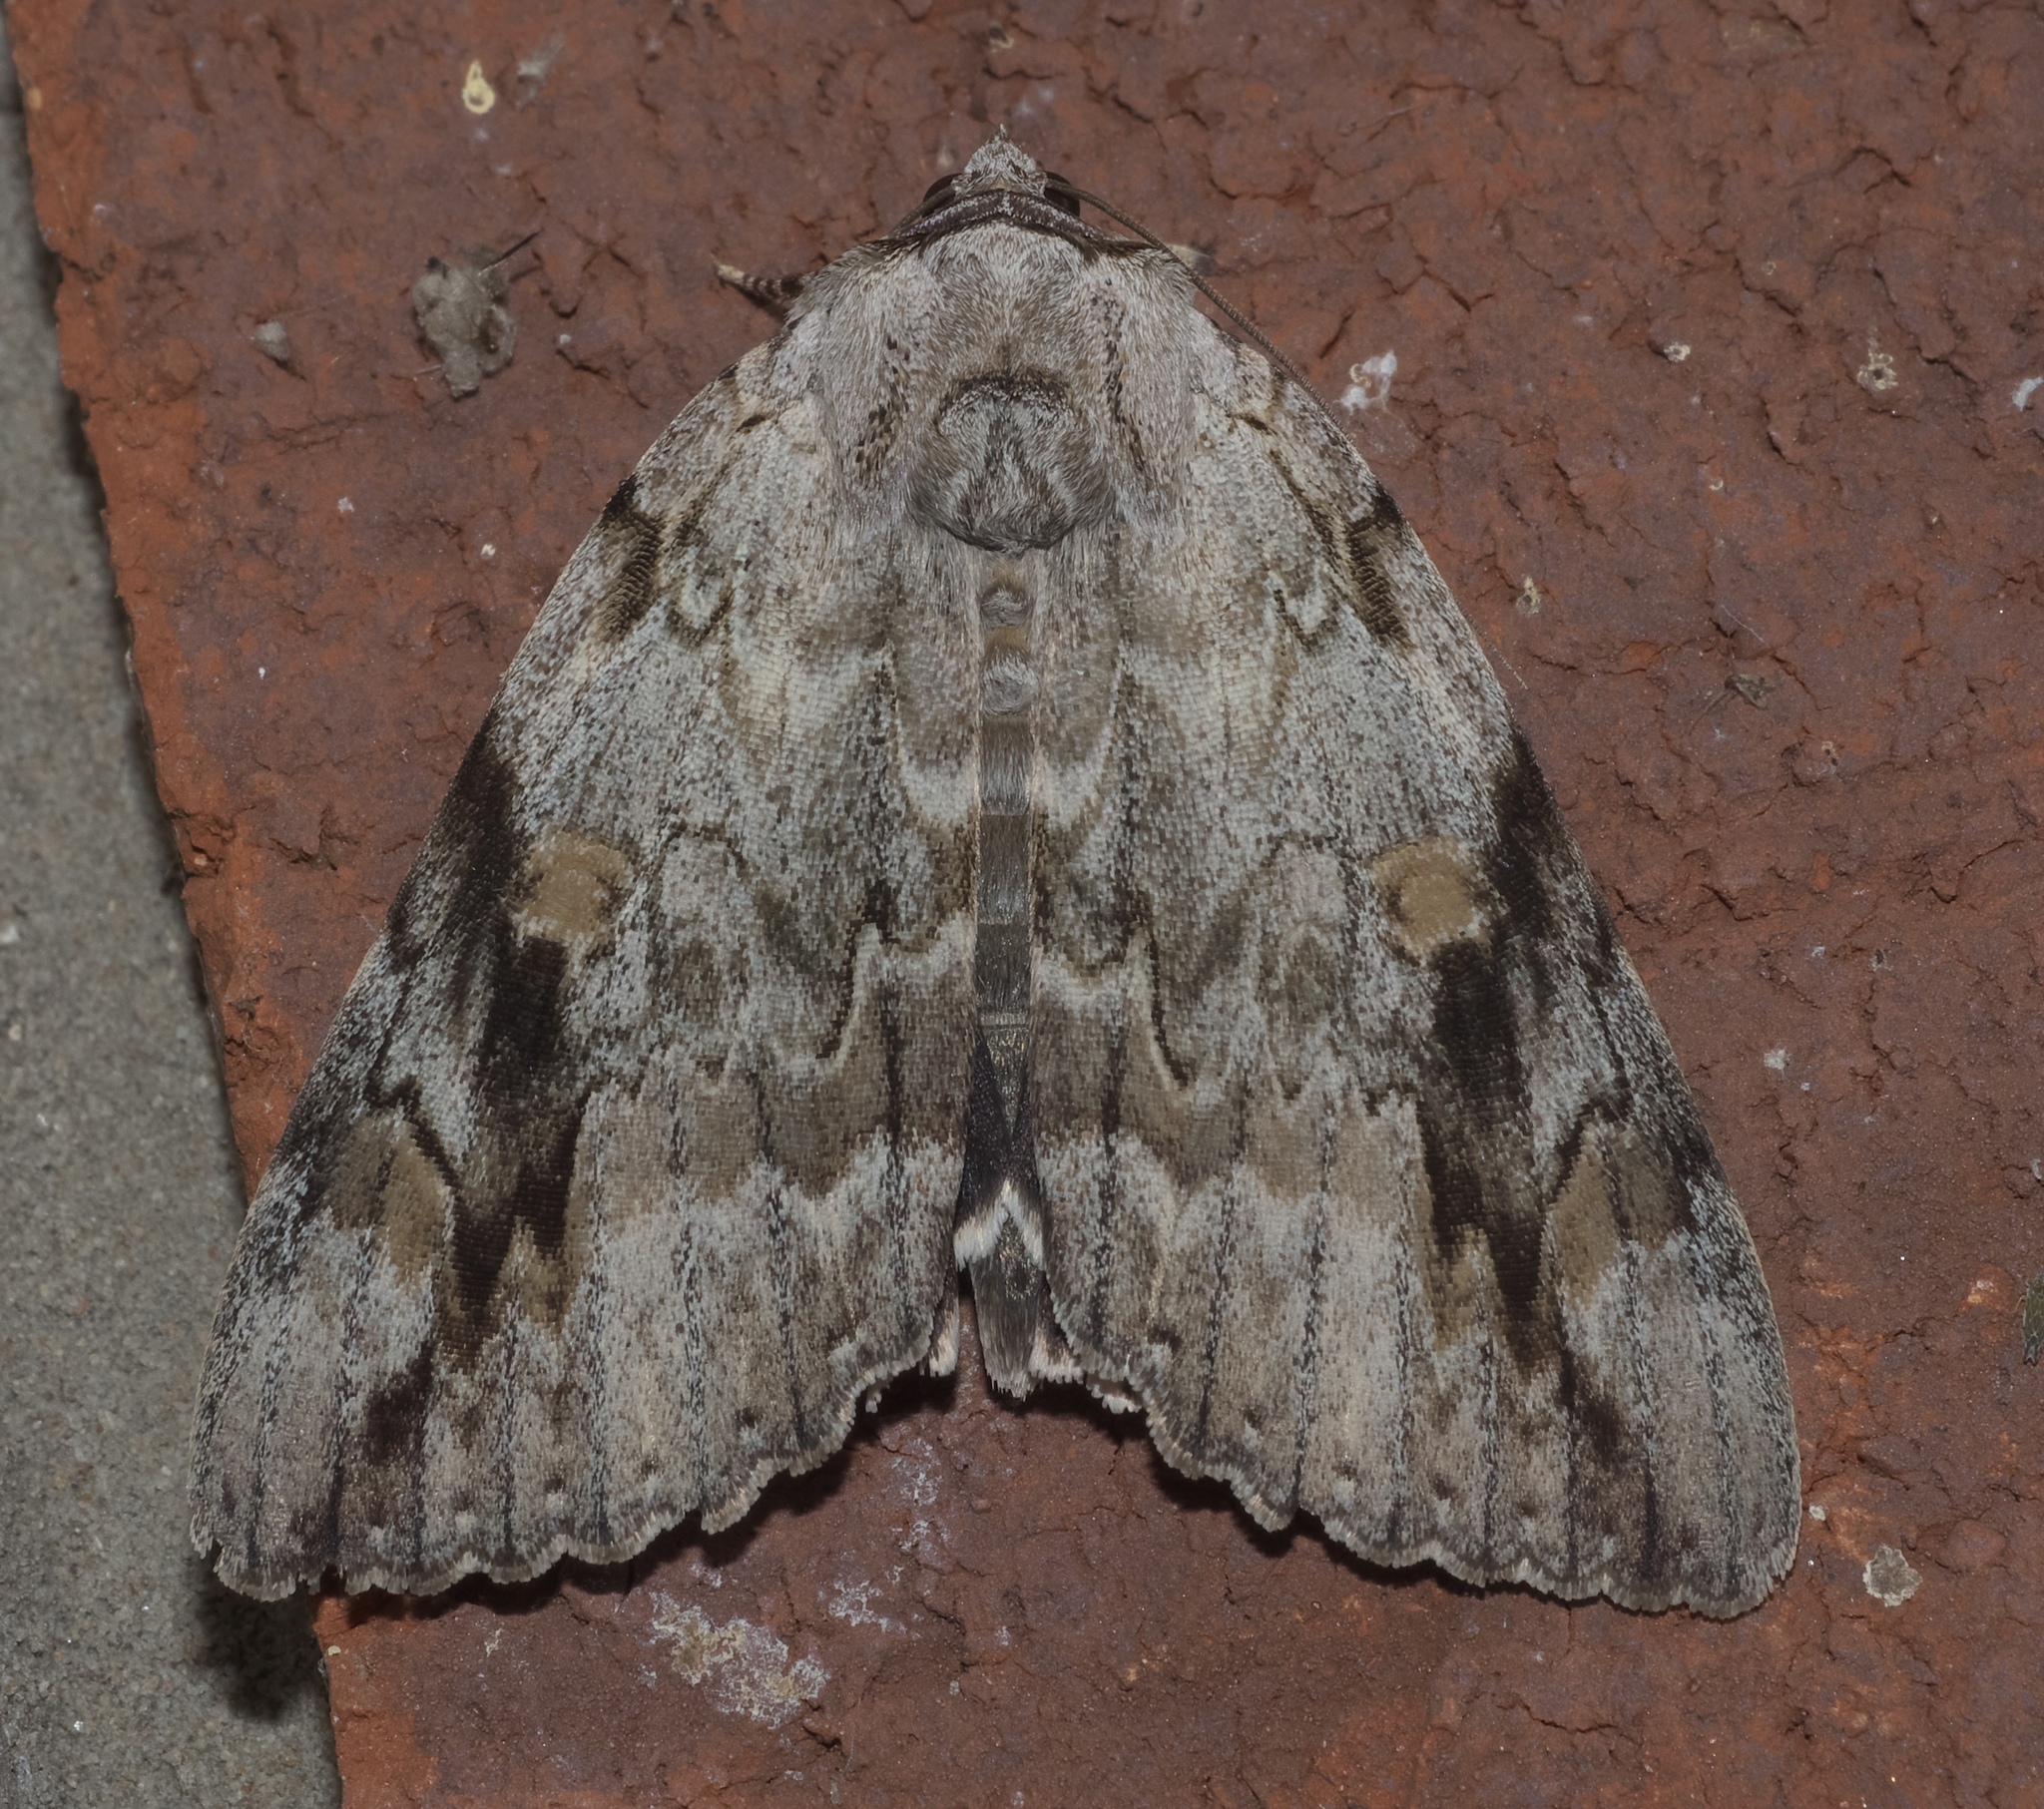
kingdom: Animalia
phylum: Arthropoda
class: Insecta
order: Lepidoptera
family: Erebidae
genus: Catocala
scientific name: Catocala maestosa
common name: Sad underwing
